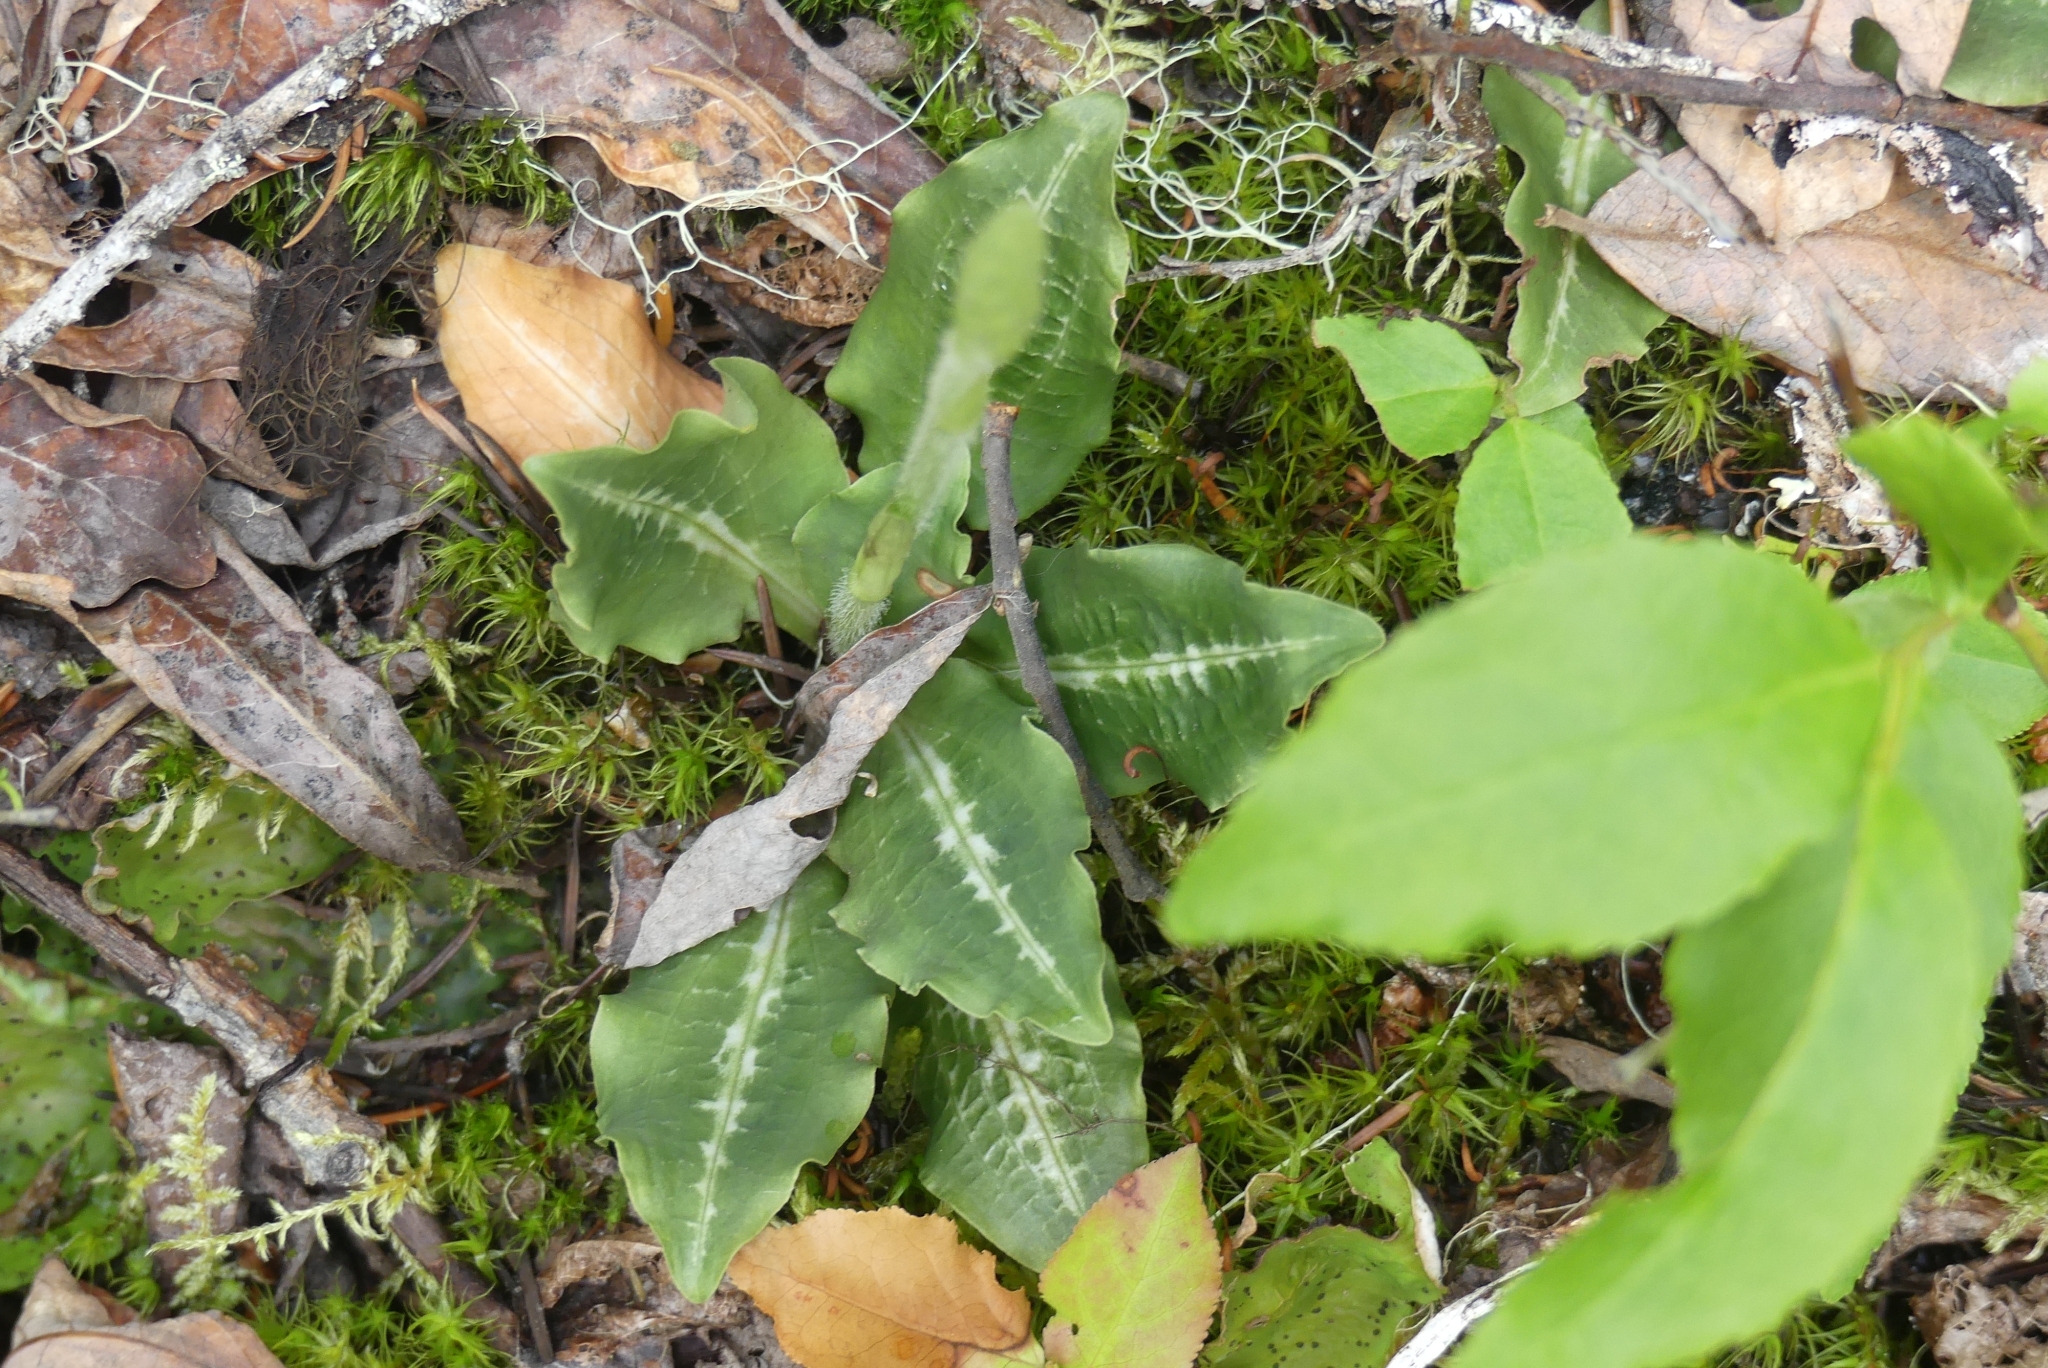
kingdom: Plantae
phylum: Tracheophyta
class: Liliopsida
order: Asparagales
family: Orchidaceae
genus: Goodyera
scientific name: Goodyera oblongifolia
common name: Giant rattlesnake-plantain
